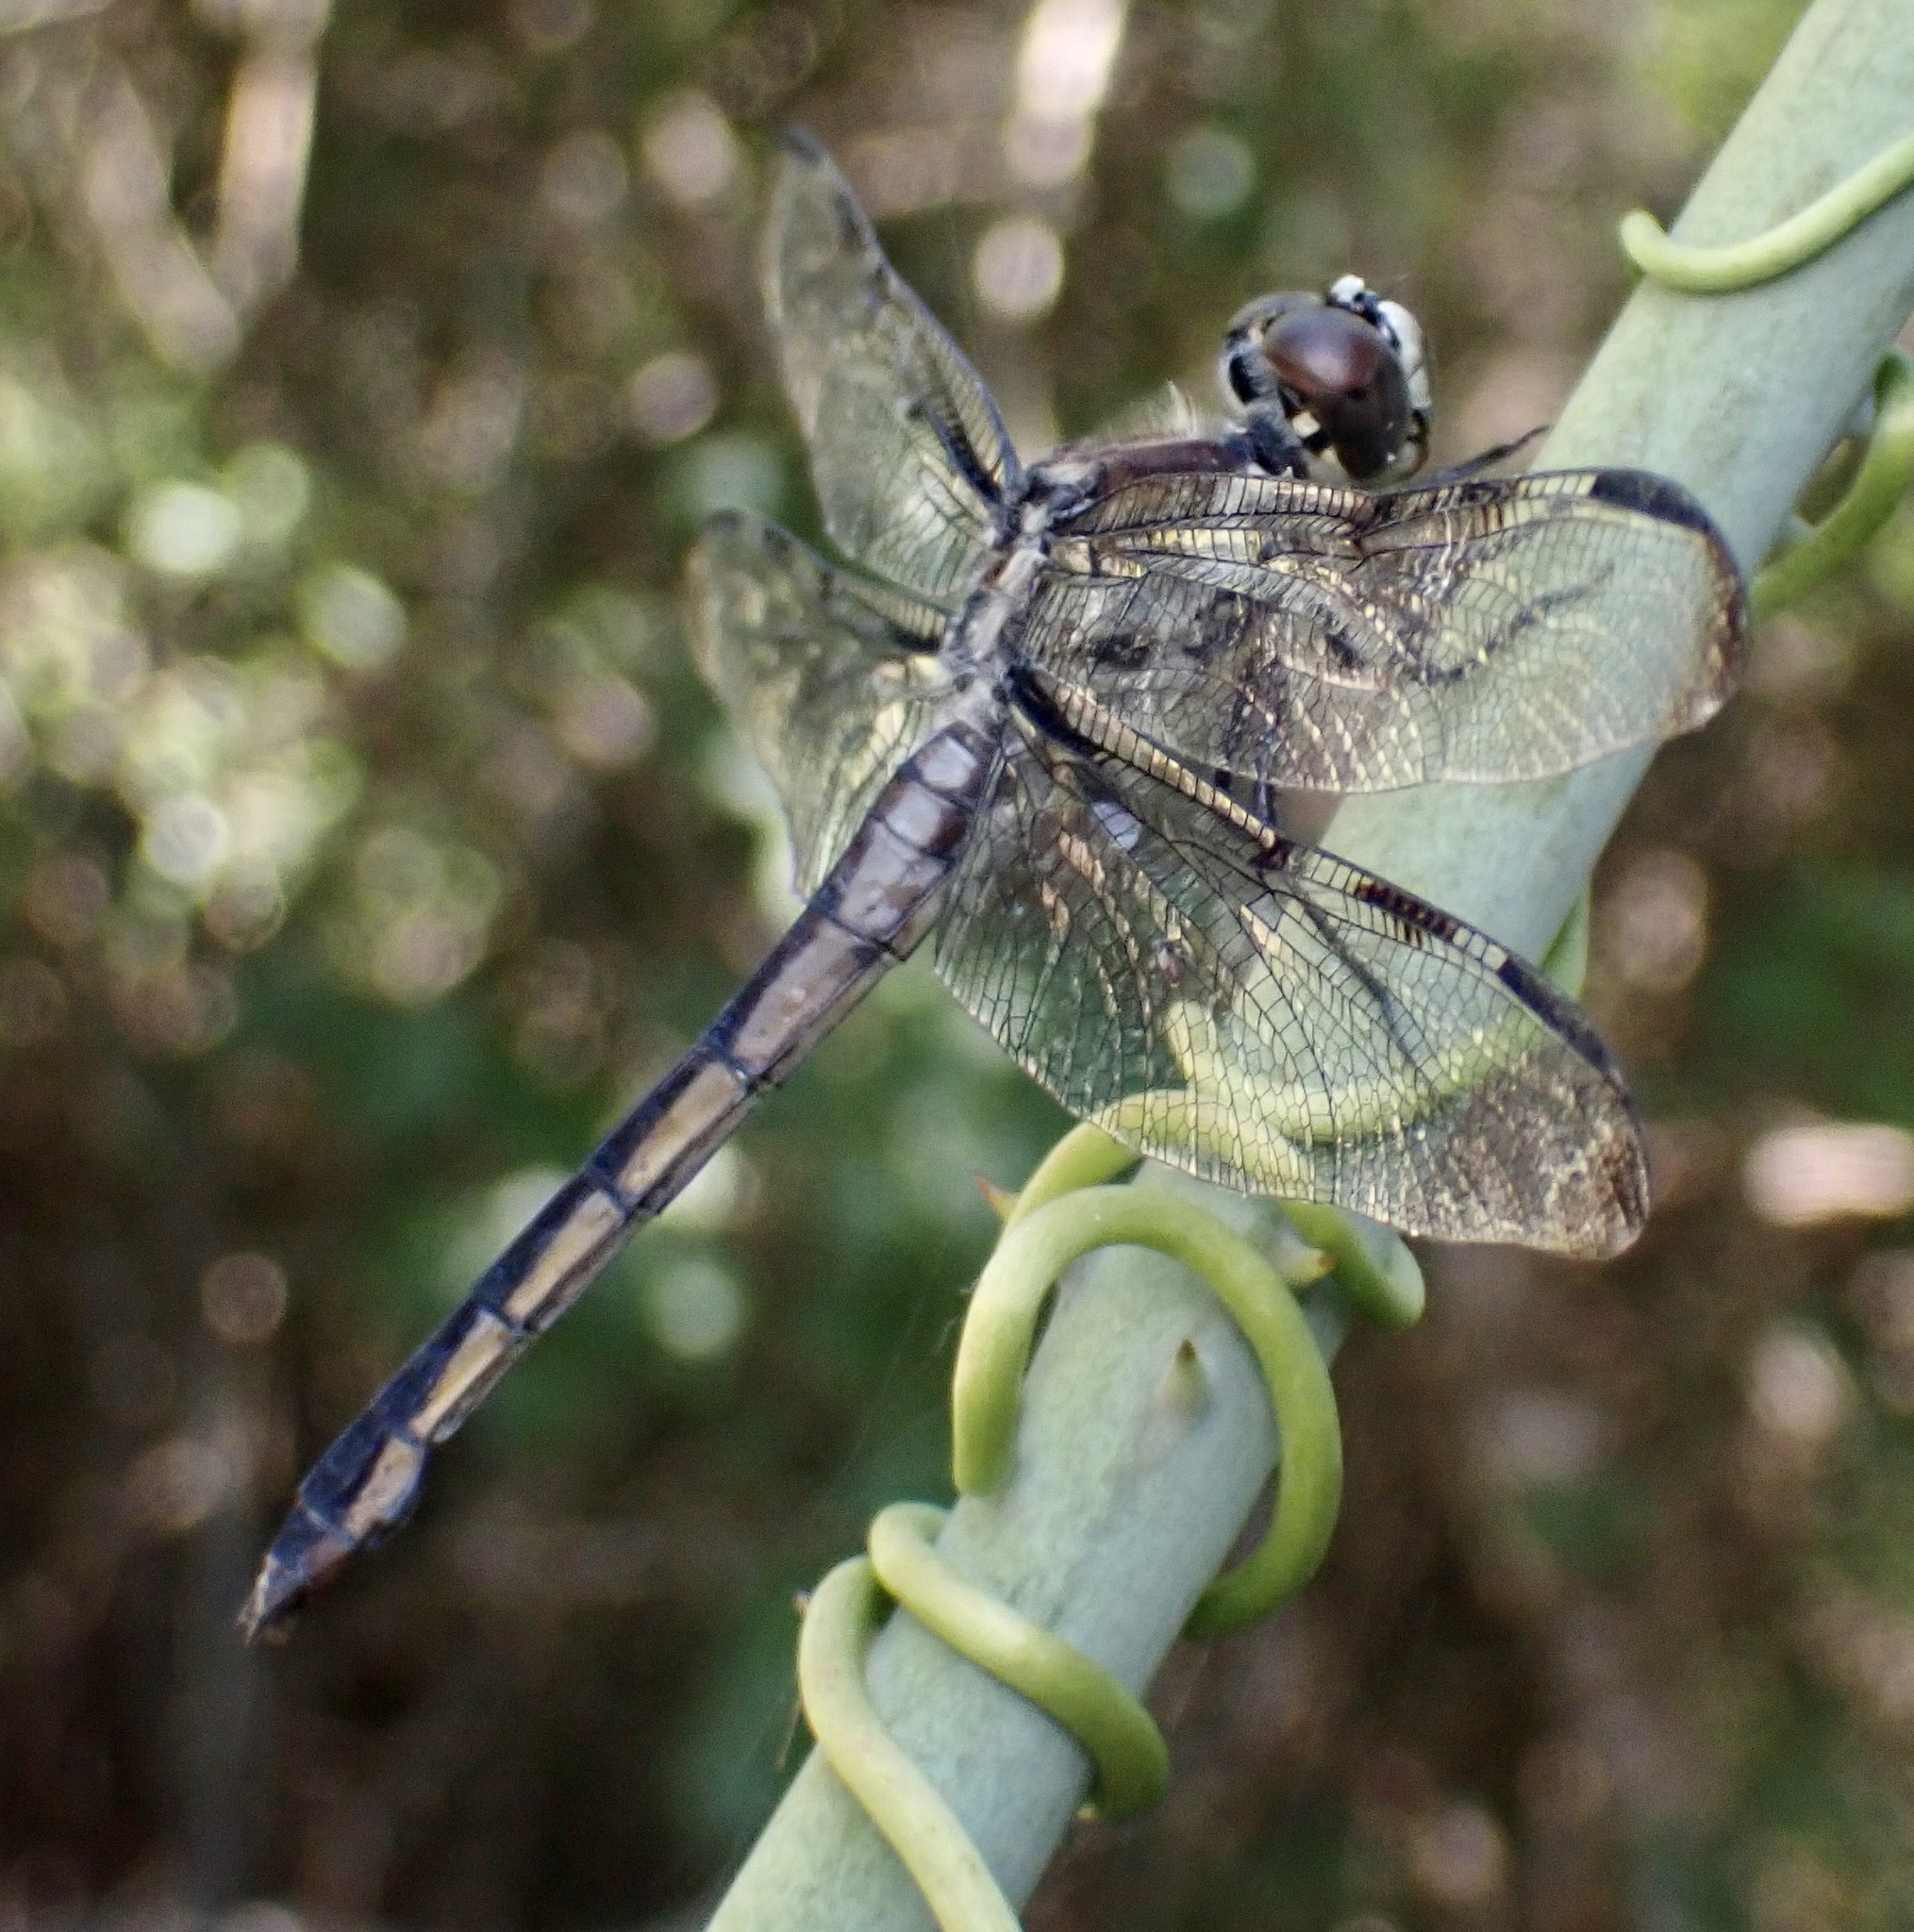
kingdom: Animalia
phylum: Arthropoda
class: Insecta
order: Odonata
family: Libellulidae
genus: Libellula
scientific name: Libellula axilena
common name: Bar-winged skimmer
